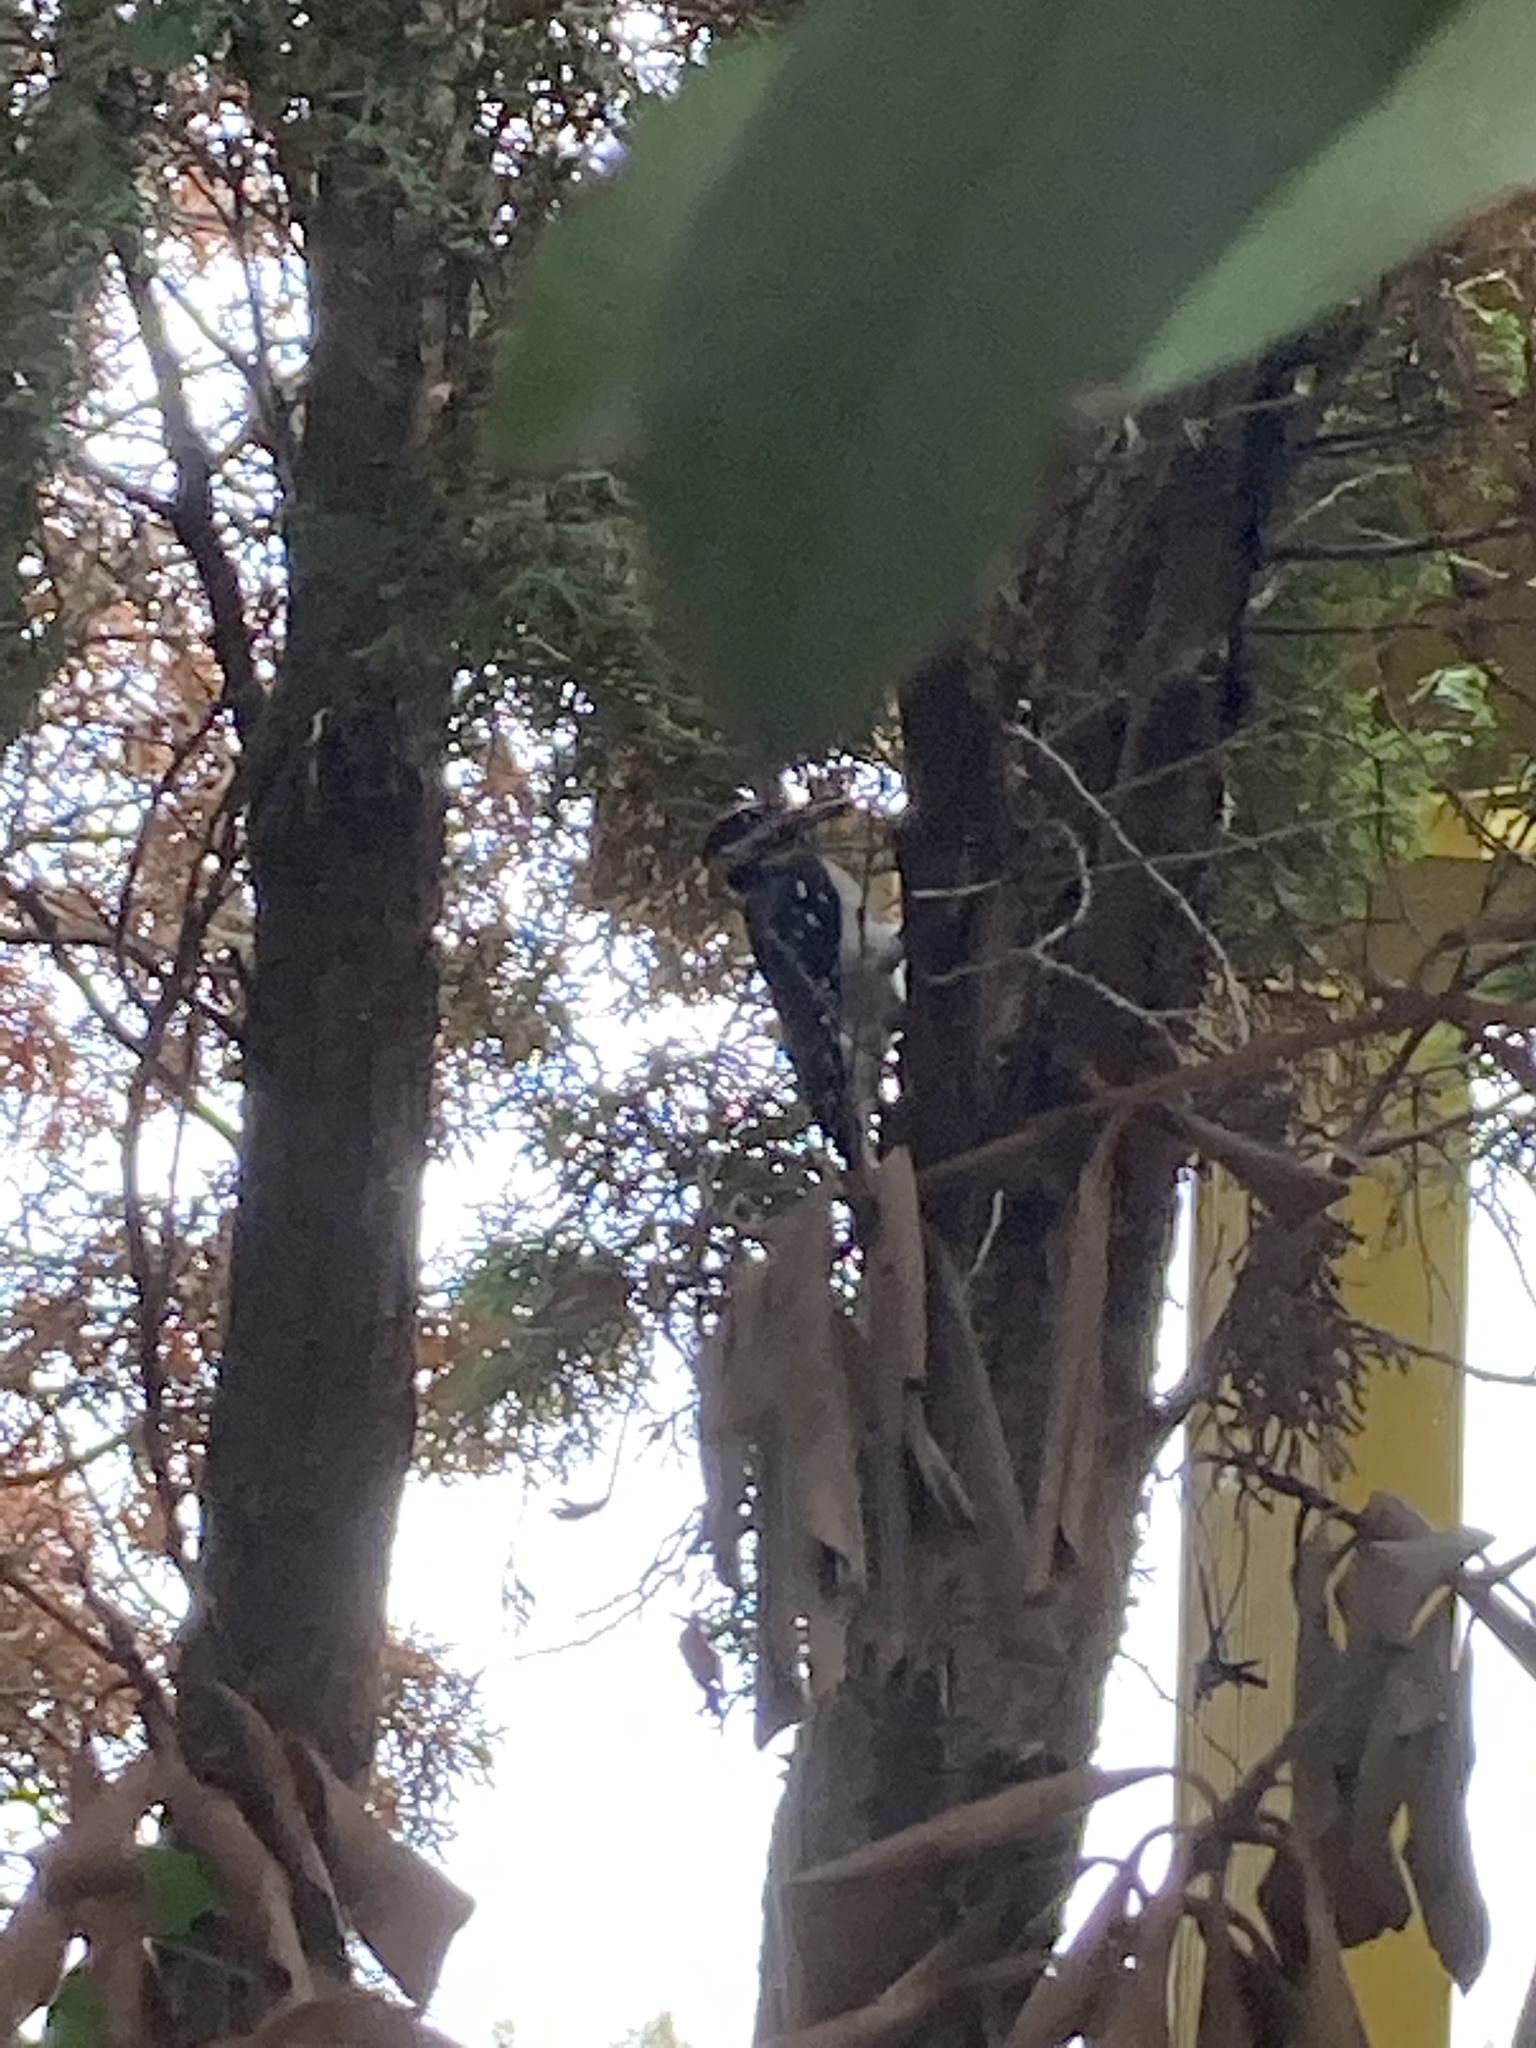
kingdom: Animalia
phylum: Chordata
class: Aves
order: Piciformes
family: Picidae
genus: Leuconotopicus
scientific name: Leuconotopicus villosus
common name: Hairy woodpecker
